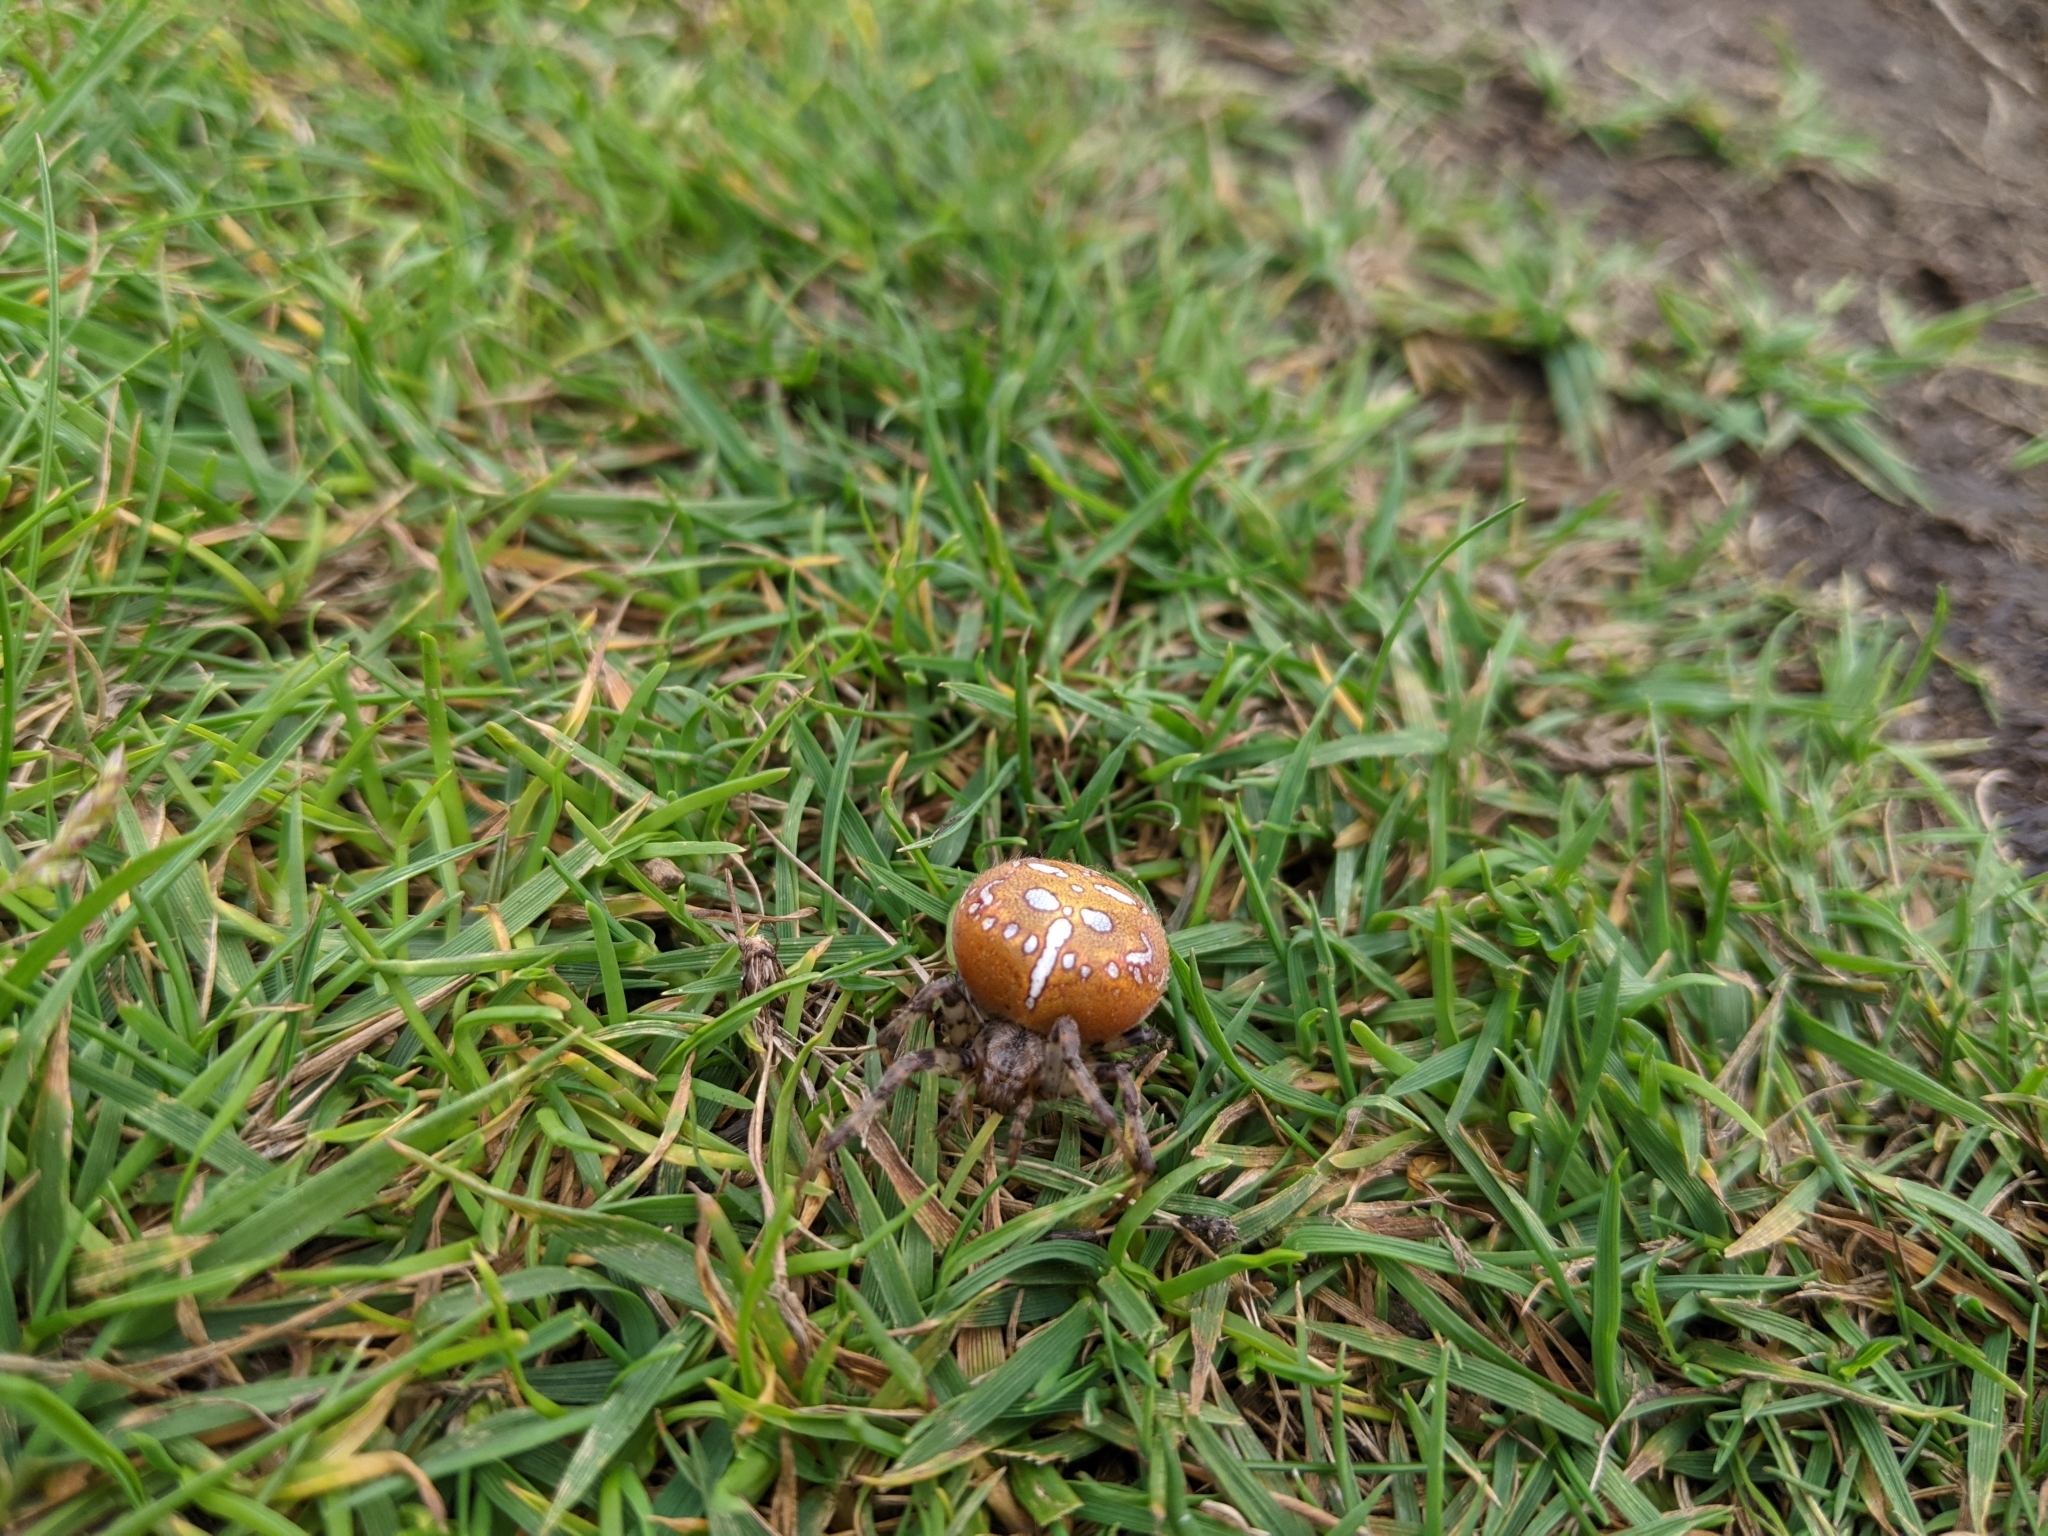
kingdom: Animalia
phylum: Arthropoda
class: Arachnida
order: Araneae
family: Araneidae
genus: Araneus
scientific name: Araneus quadratus
